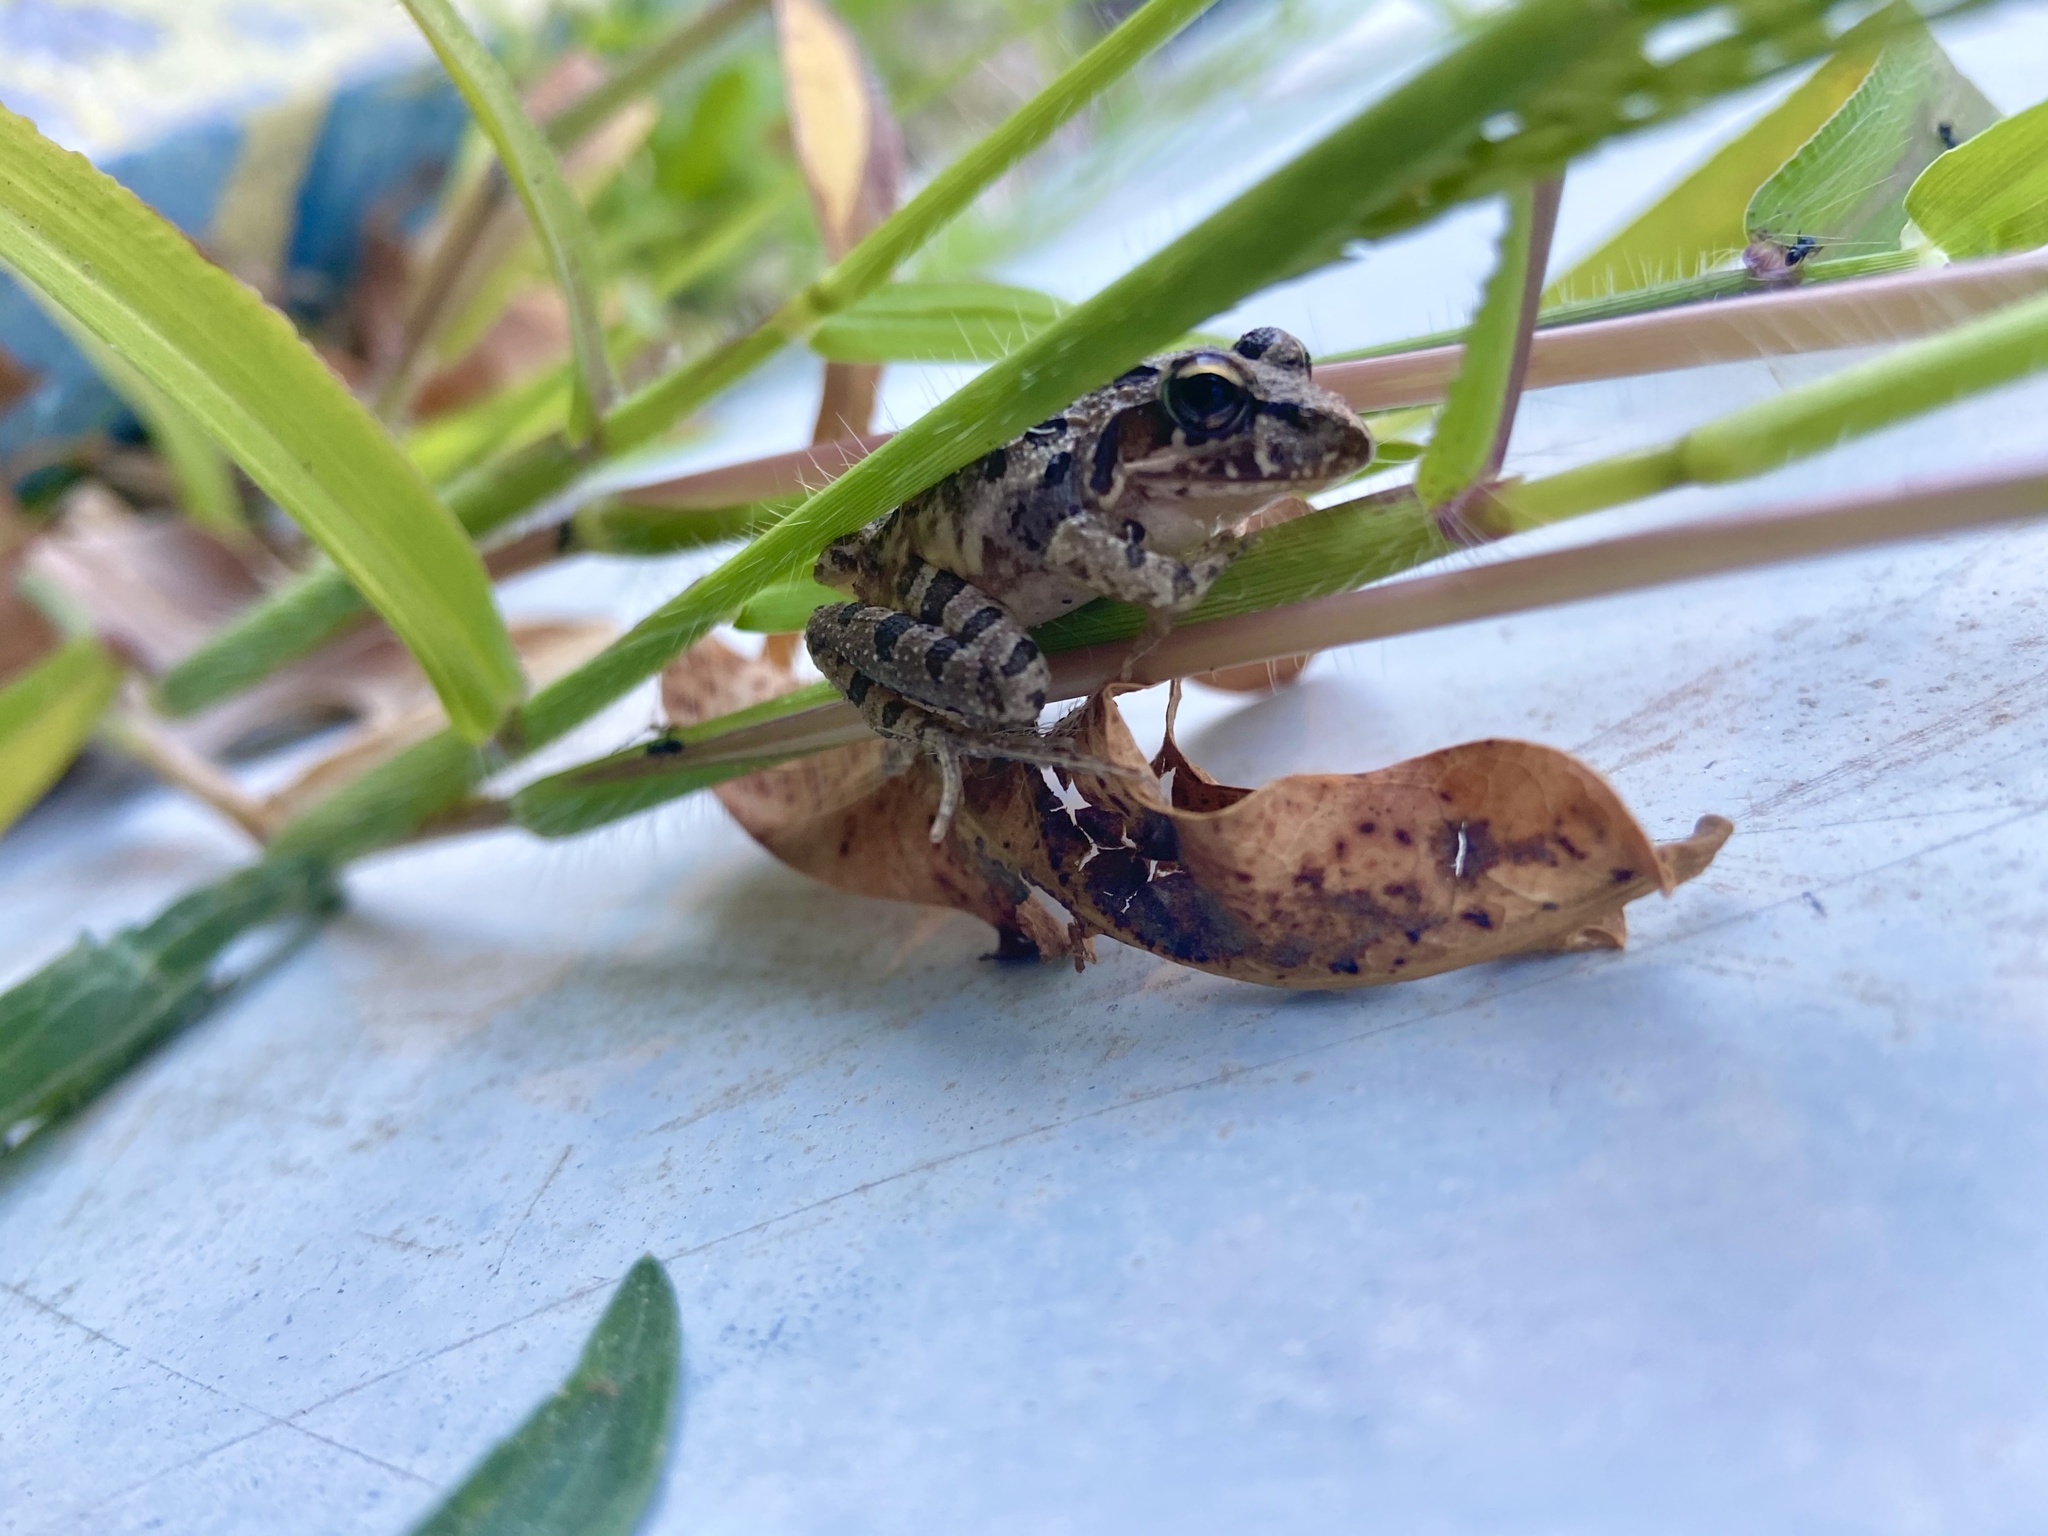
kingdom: Animalia
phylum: Chordata
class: Amphibia
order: Anura
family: Pyxicephalidae
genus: Strongylopus
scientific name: Strongylopus grayii
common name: Gray's stream frog
